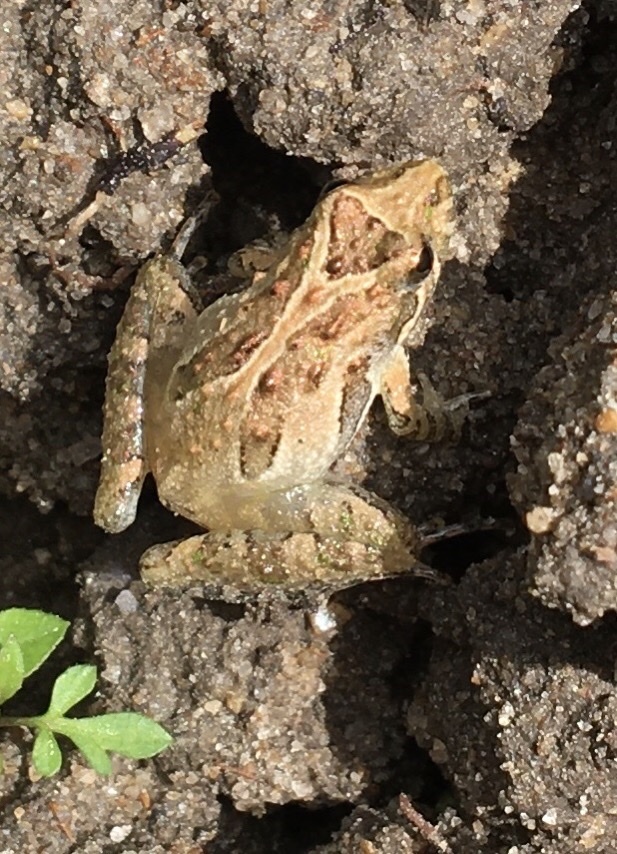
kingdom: Animalia
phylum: Chordata
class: Amphibia
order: Anura
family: Hylidae
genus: Acris
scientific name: Acris gryllus
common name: Southern cricket frog
